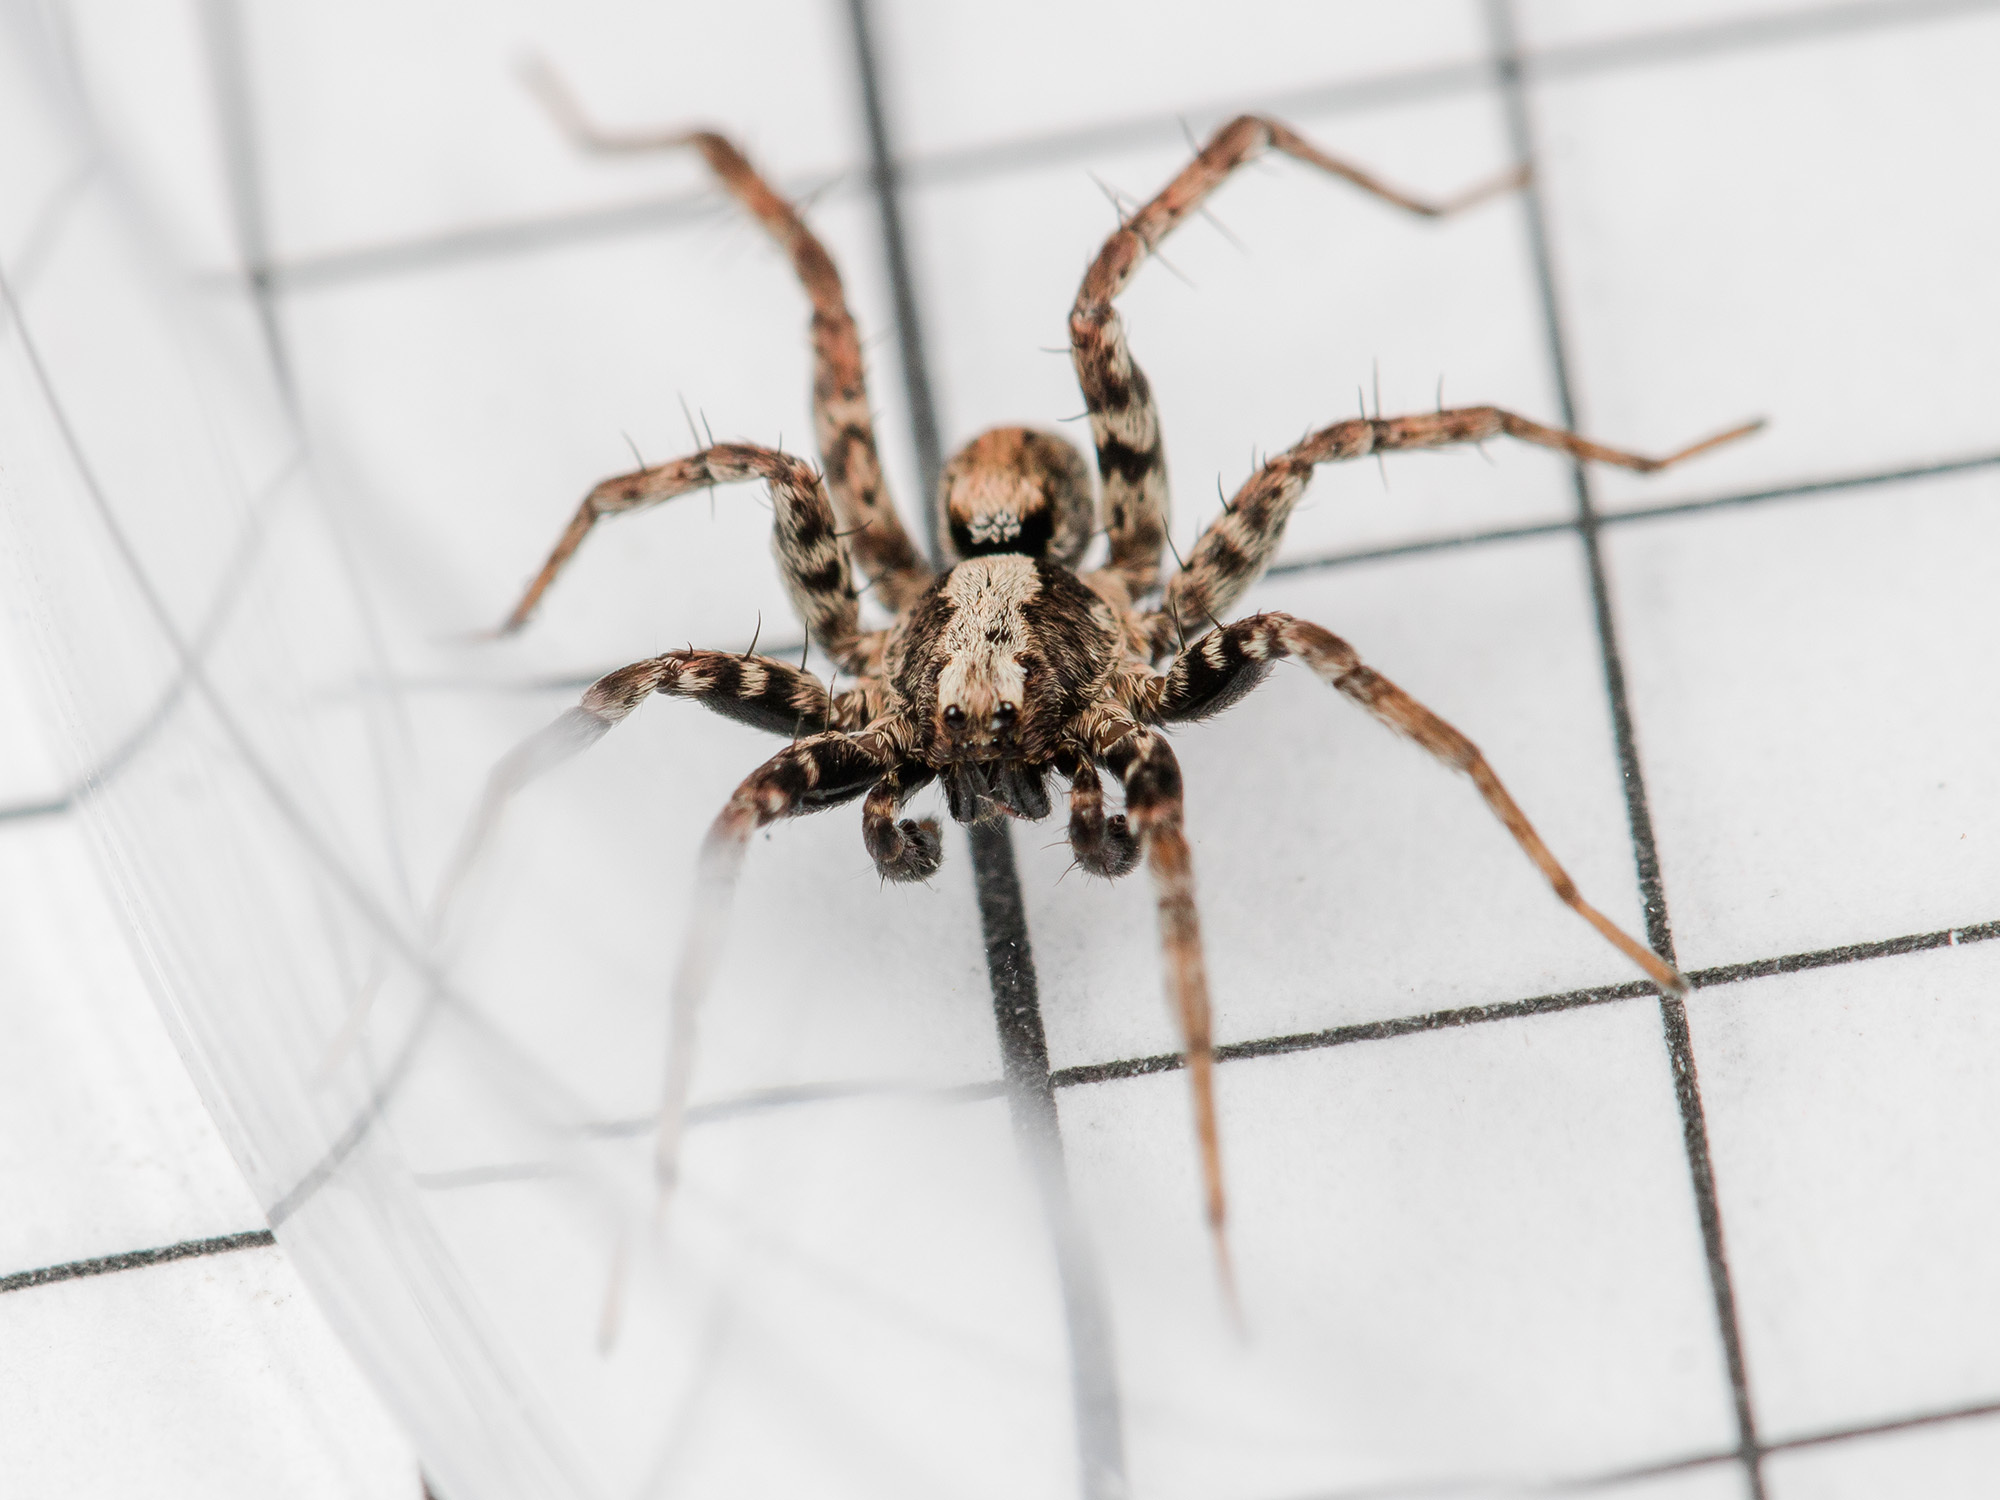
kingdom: Animalia
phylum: Arthropoda
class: Arachnida
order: Araneae
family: Lycosidae
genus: Xerolycosa
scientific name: Xerolycosa miniata
